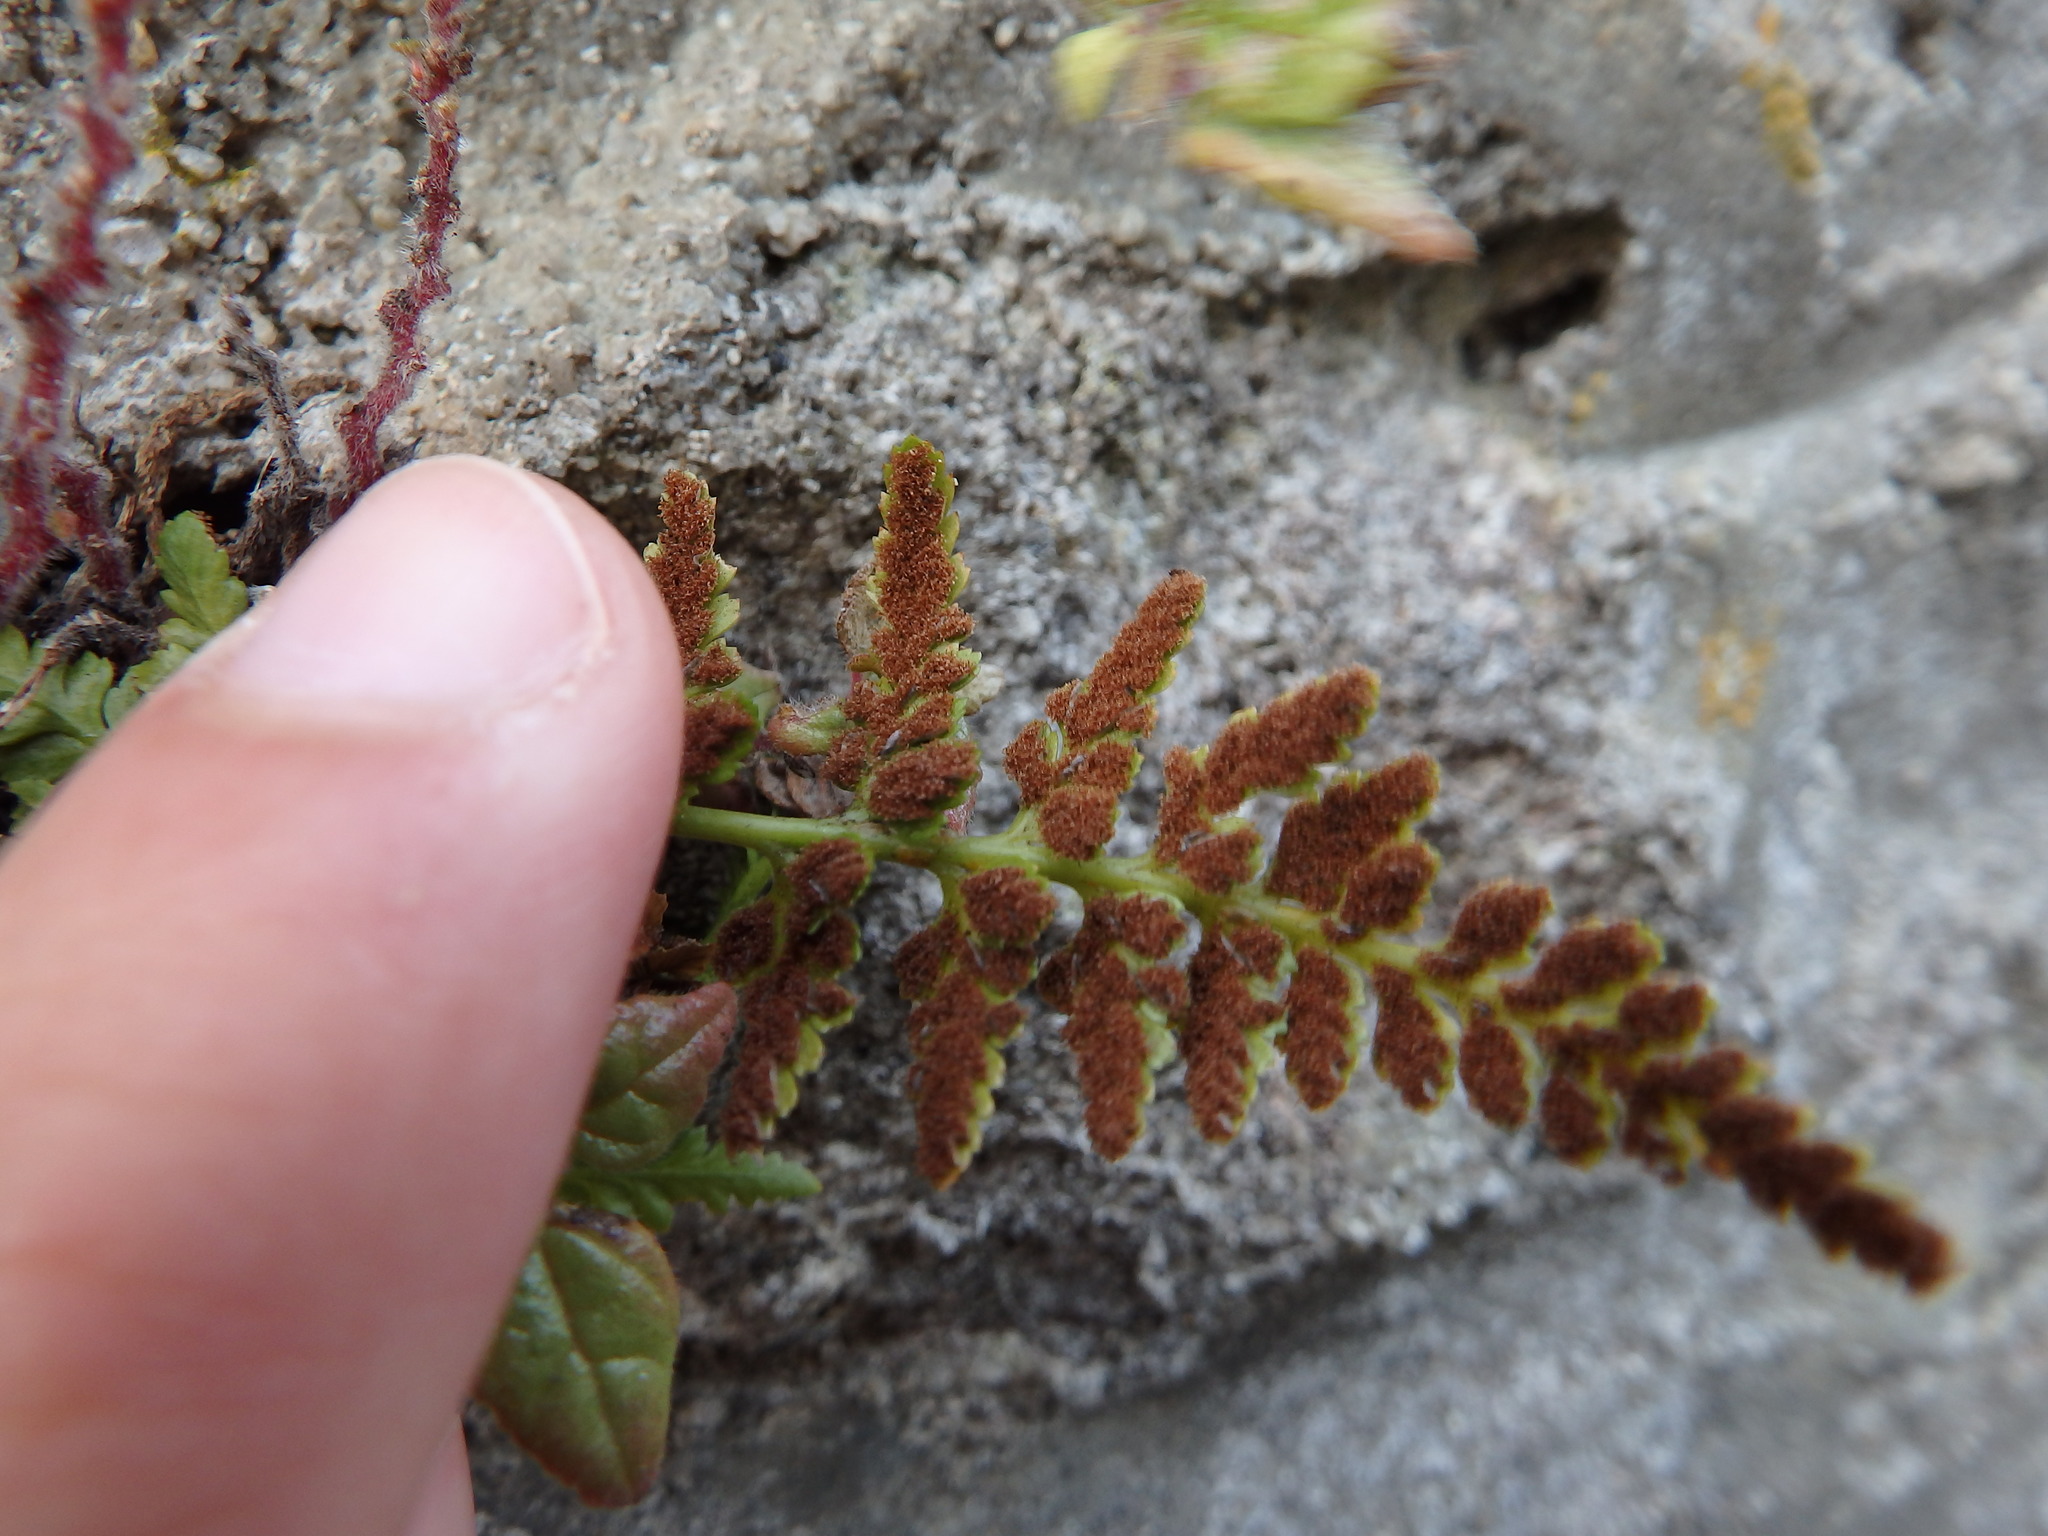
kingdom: Plantae
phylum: Tracheophyta
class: Polypodiopsida
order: Polypodiales
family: Aspleniaceae
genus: Asplenium
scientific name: Asplenium adiantum-nigrum
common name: Black spleenwort
